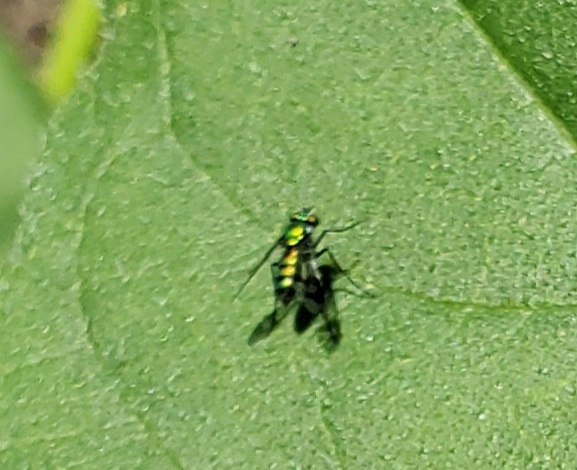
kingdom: Animalia
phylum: Arthropoda
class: Insecta
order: Diptera
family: Dolichopodidae
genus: Condylostylus
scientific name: Condylostylus occidentalis
